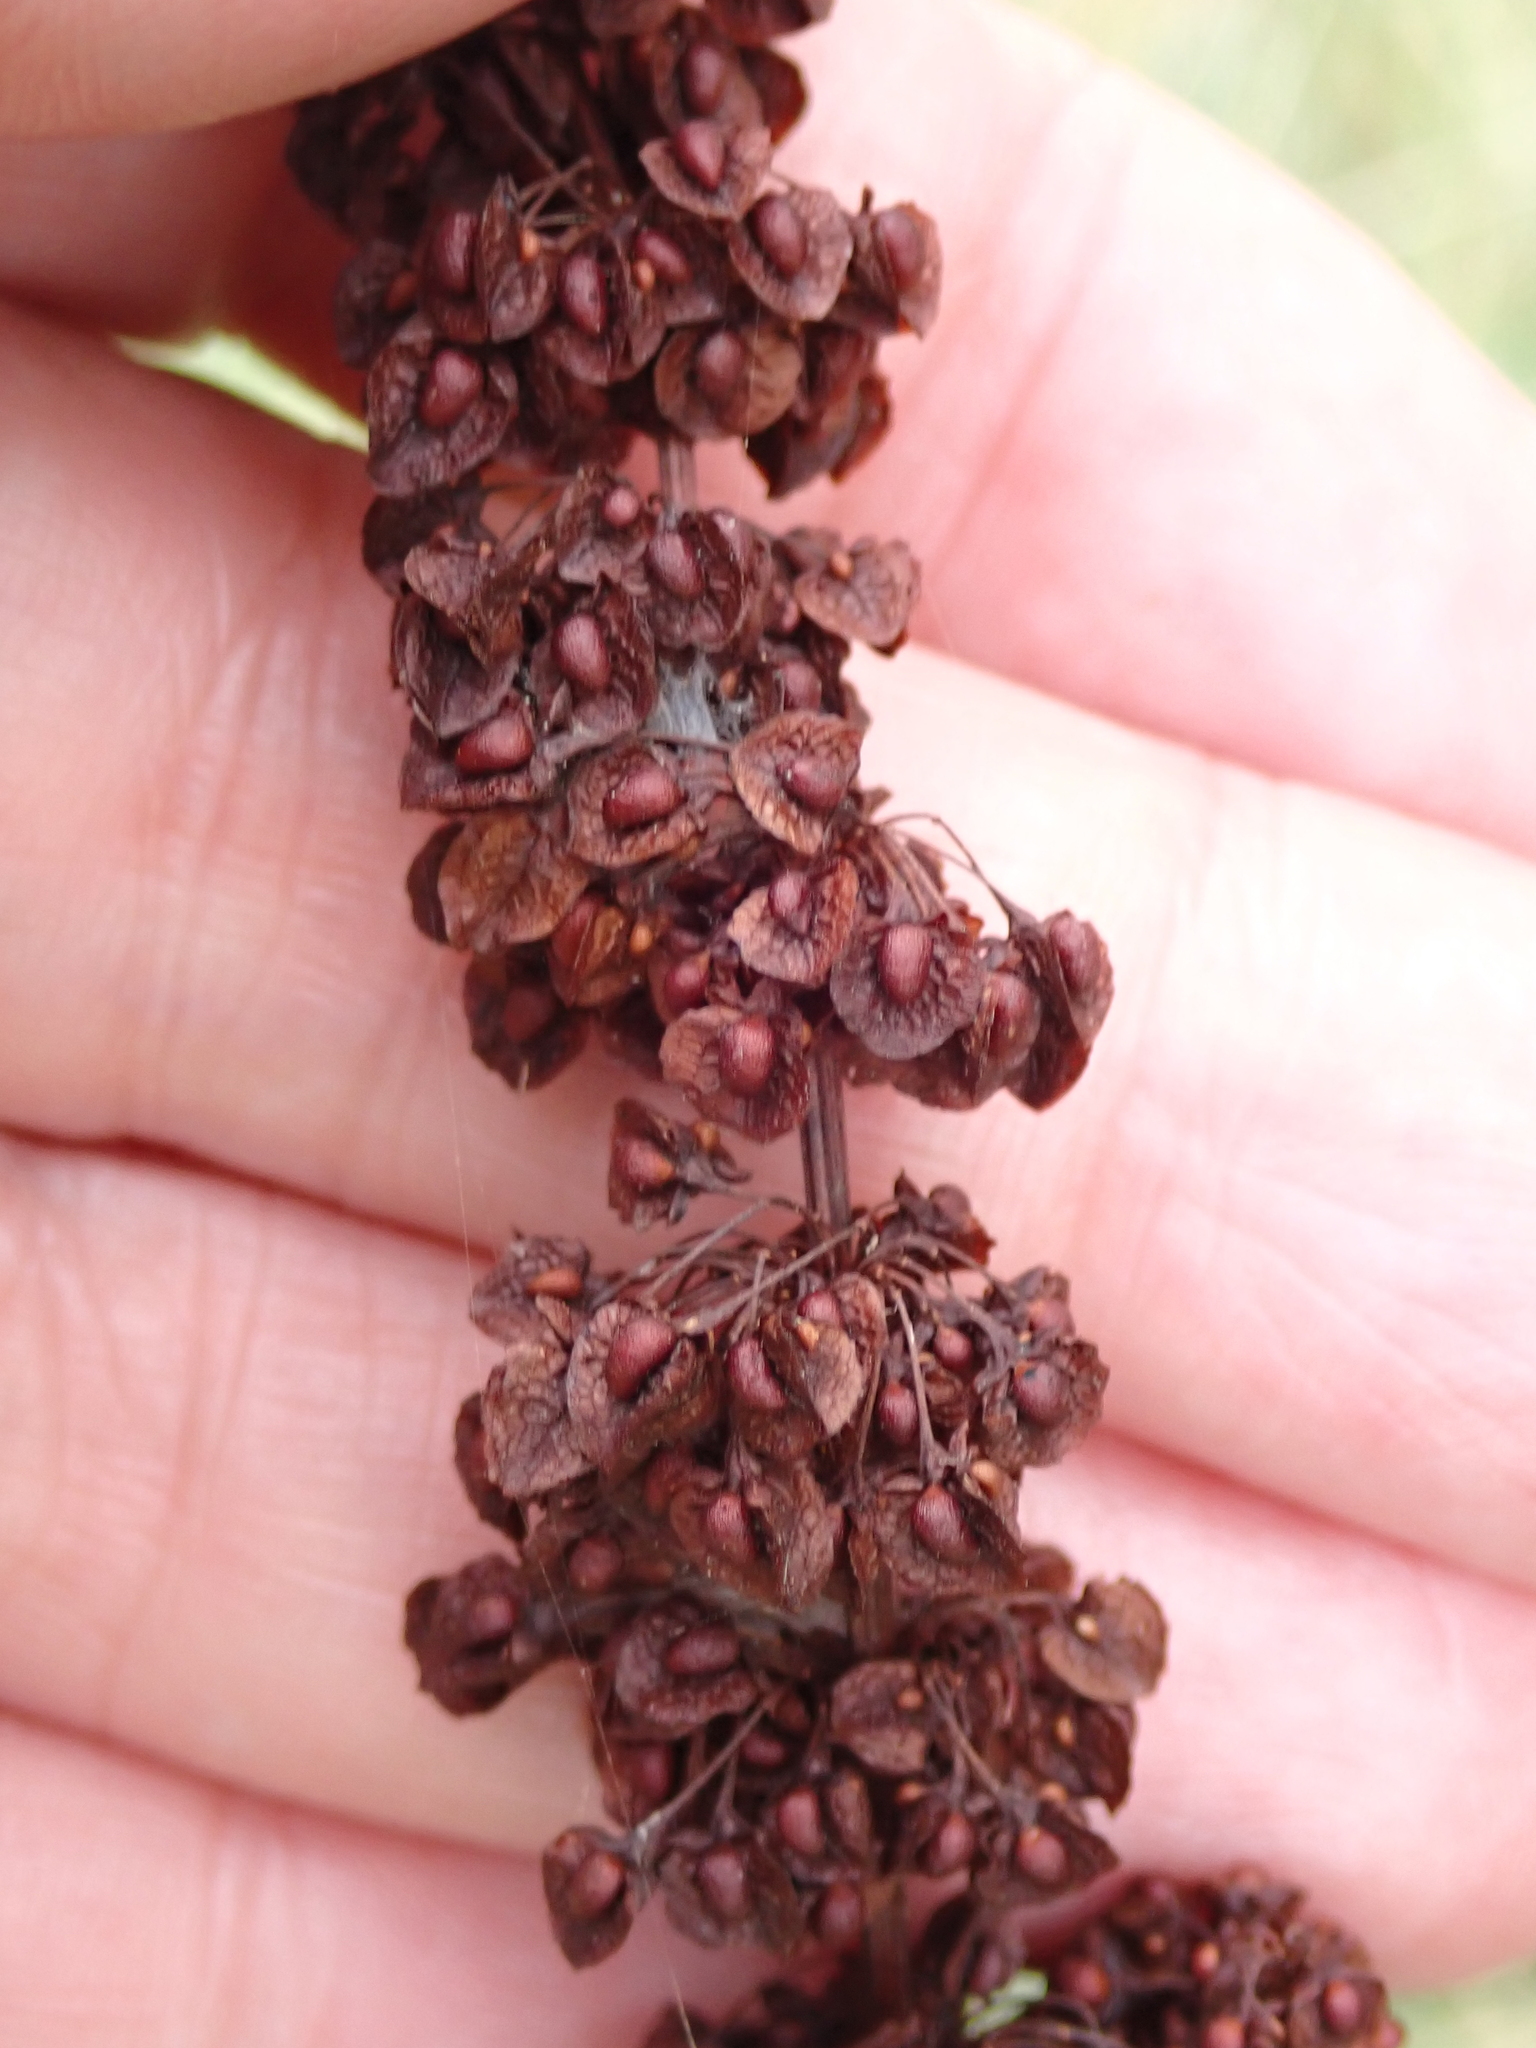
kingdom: Plantae
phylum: Tracheophyta
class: Magnoliopsida
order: Caryophyllales
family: Polygonaceae
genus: Rumex
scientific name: Rumex crispus
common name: Curled dock
